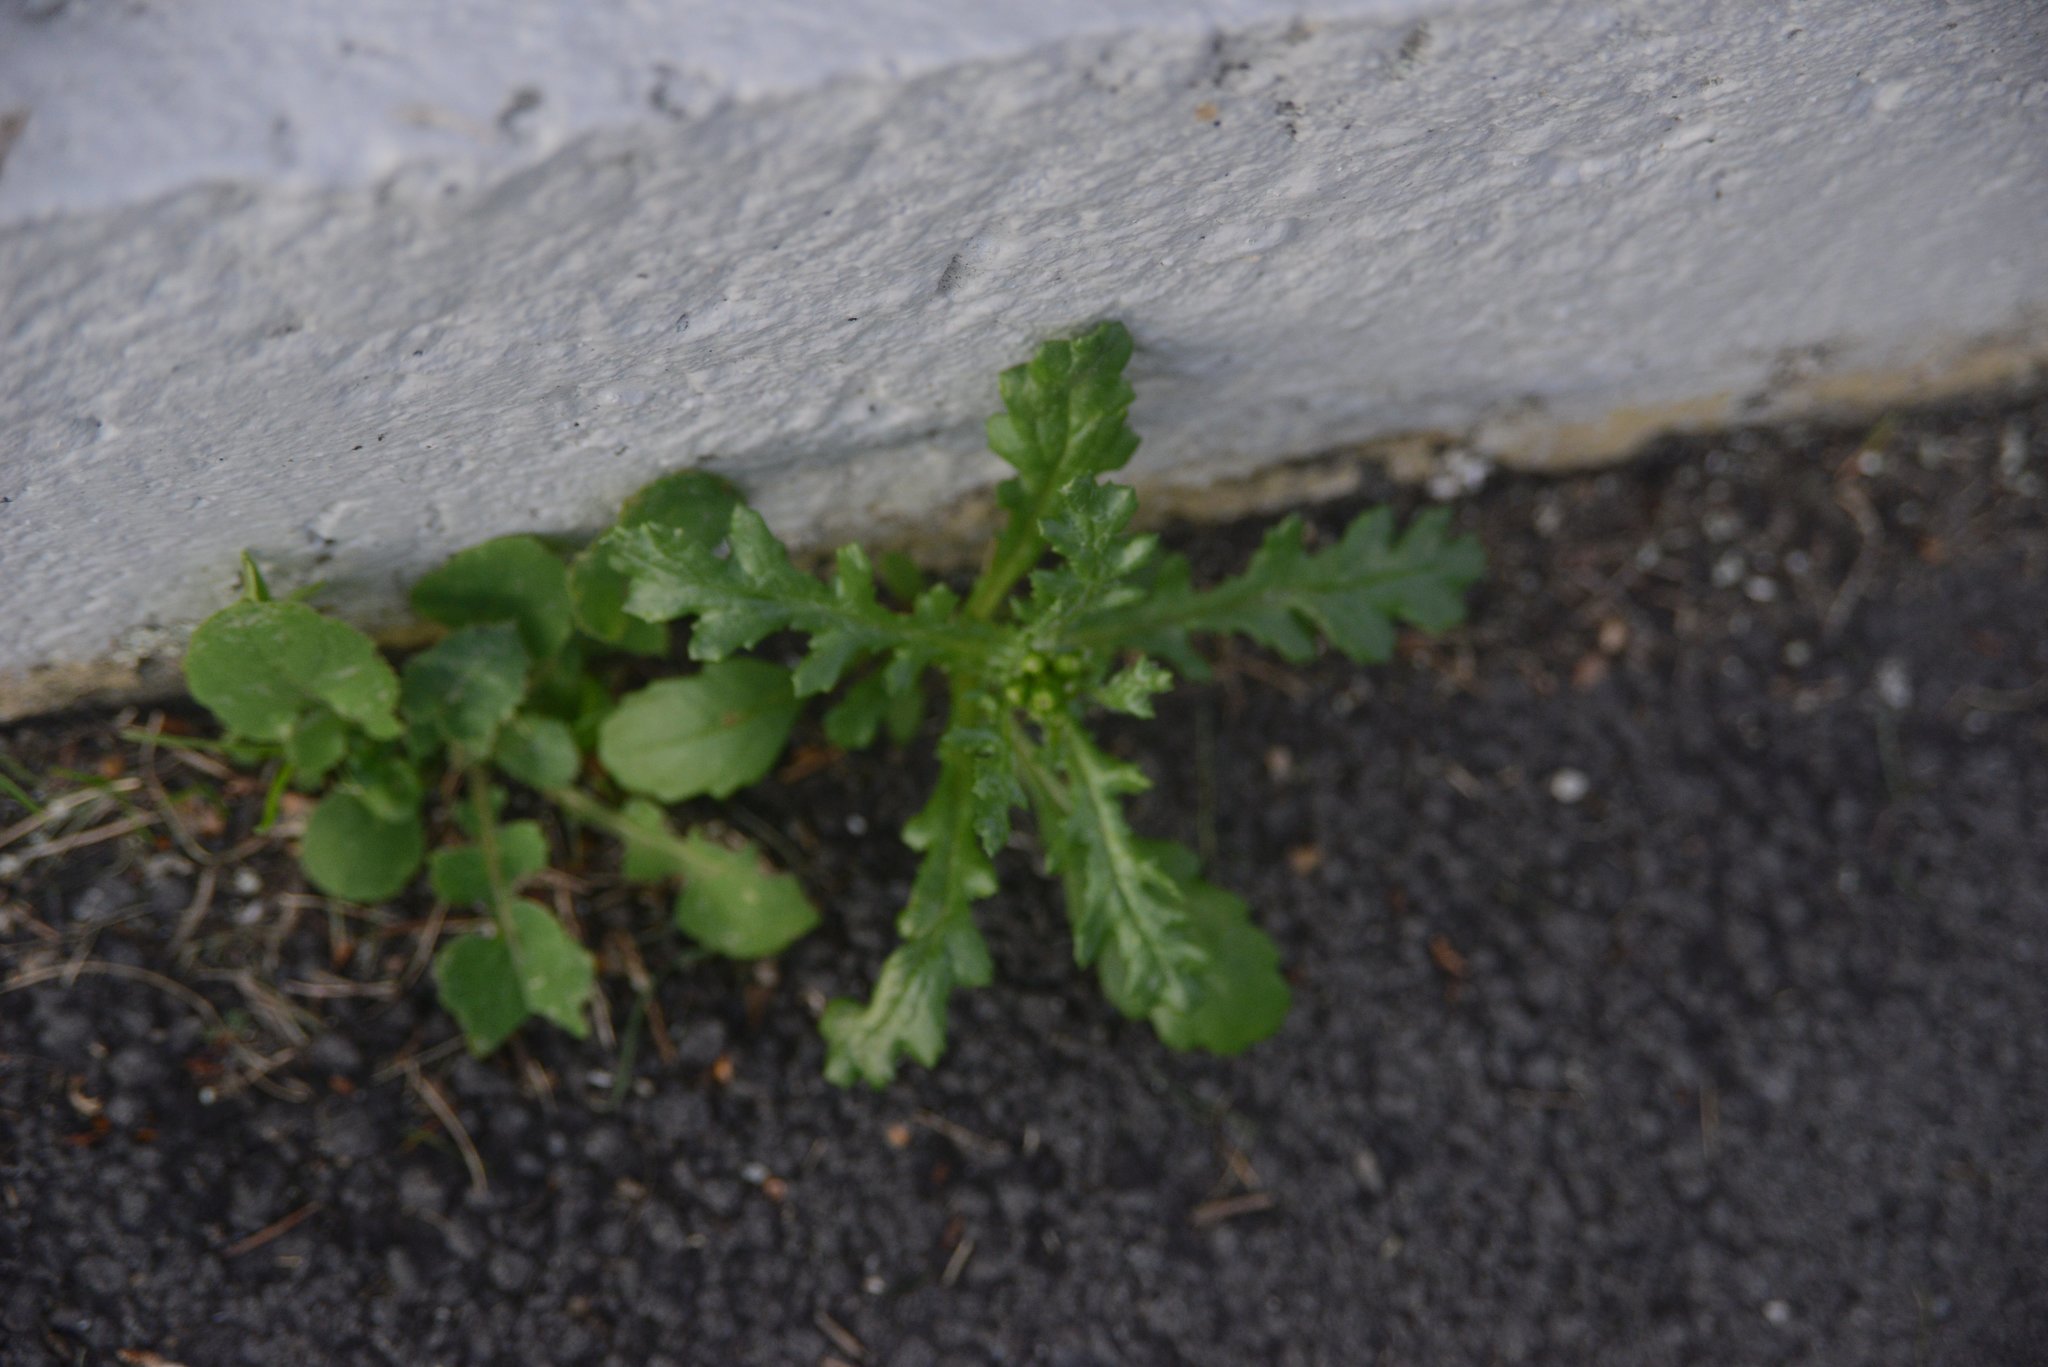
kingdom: Plantae
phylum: Tracheophyta
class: Magnoliopsida
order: Asterales
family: Asteraceae
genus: Senecio
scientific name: Senecio vulgaris
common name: Old-man-in-the-spring
